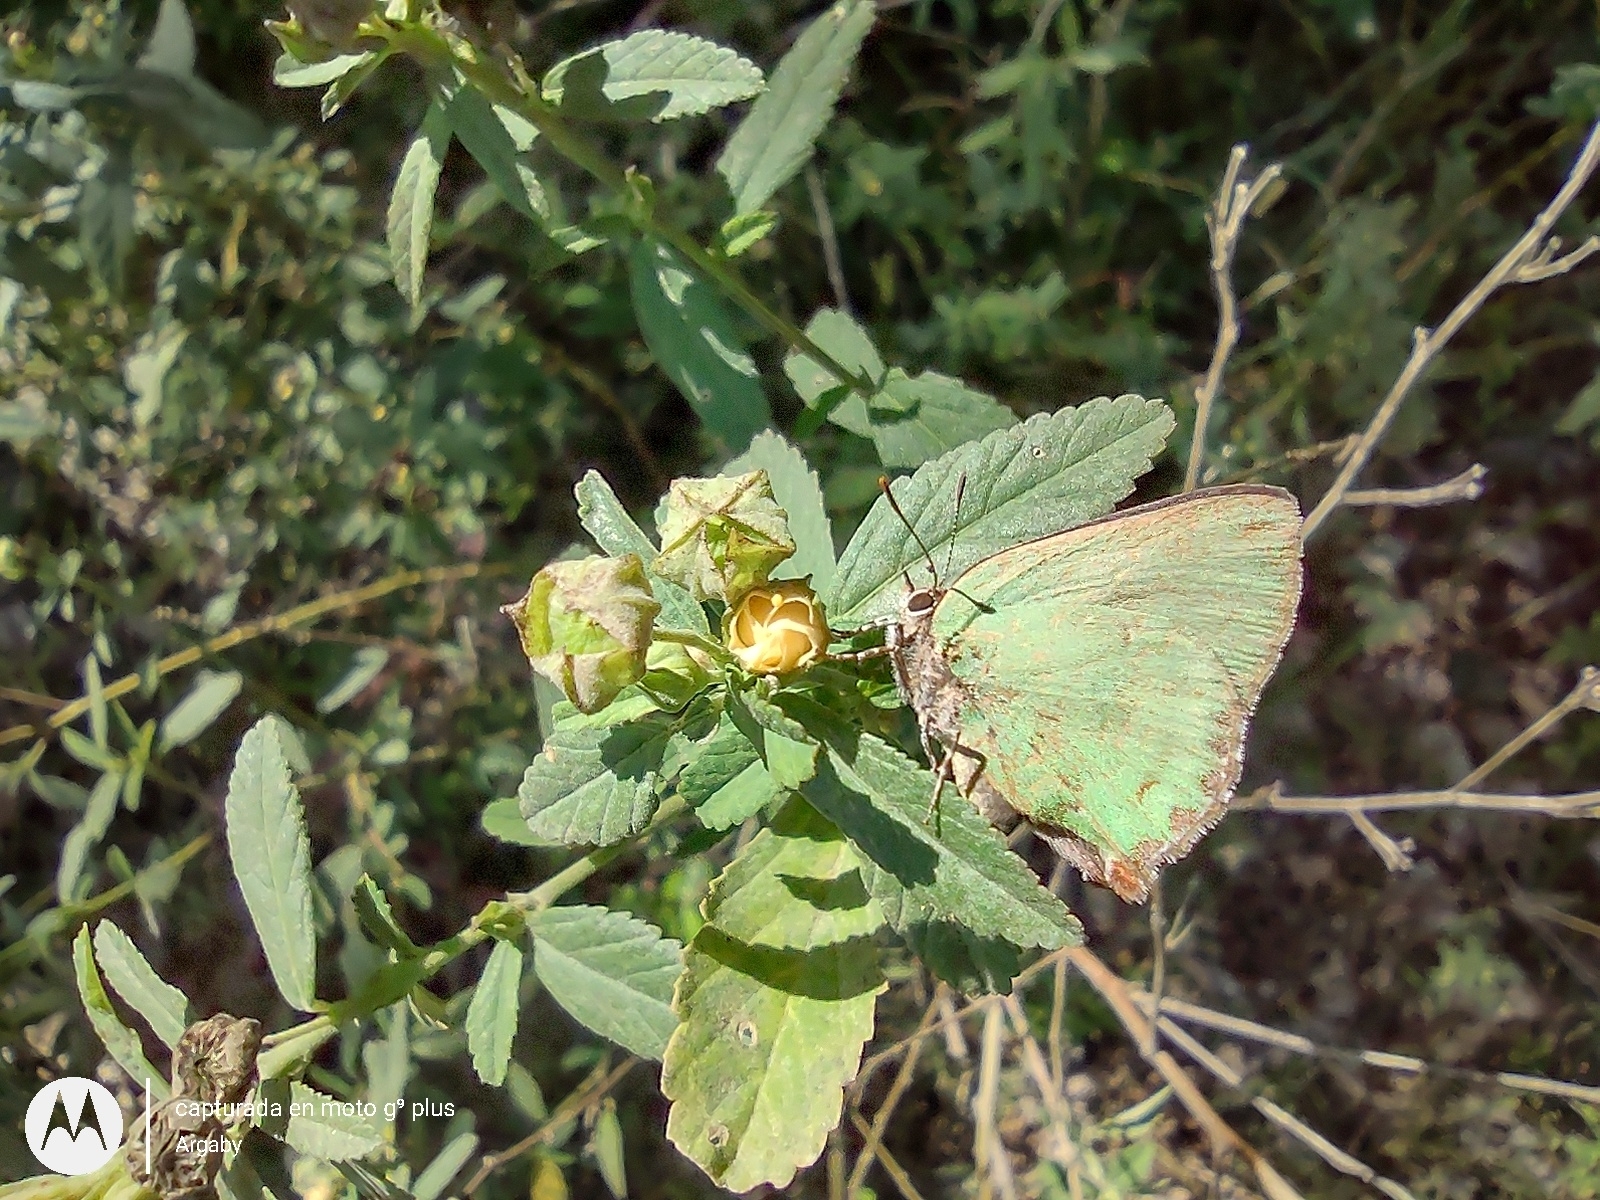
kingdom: Animalia
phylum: Arthropoda
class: Insecta
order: Lepidoptera
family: Lycaenidae
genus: Cyanophrys
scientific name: Cyanophrys
